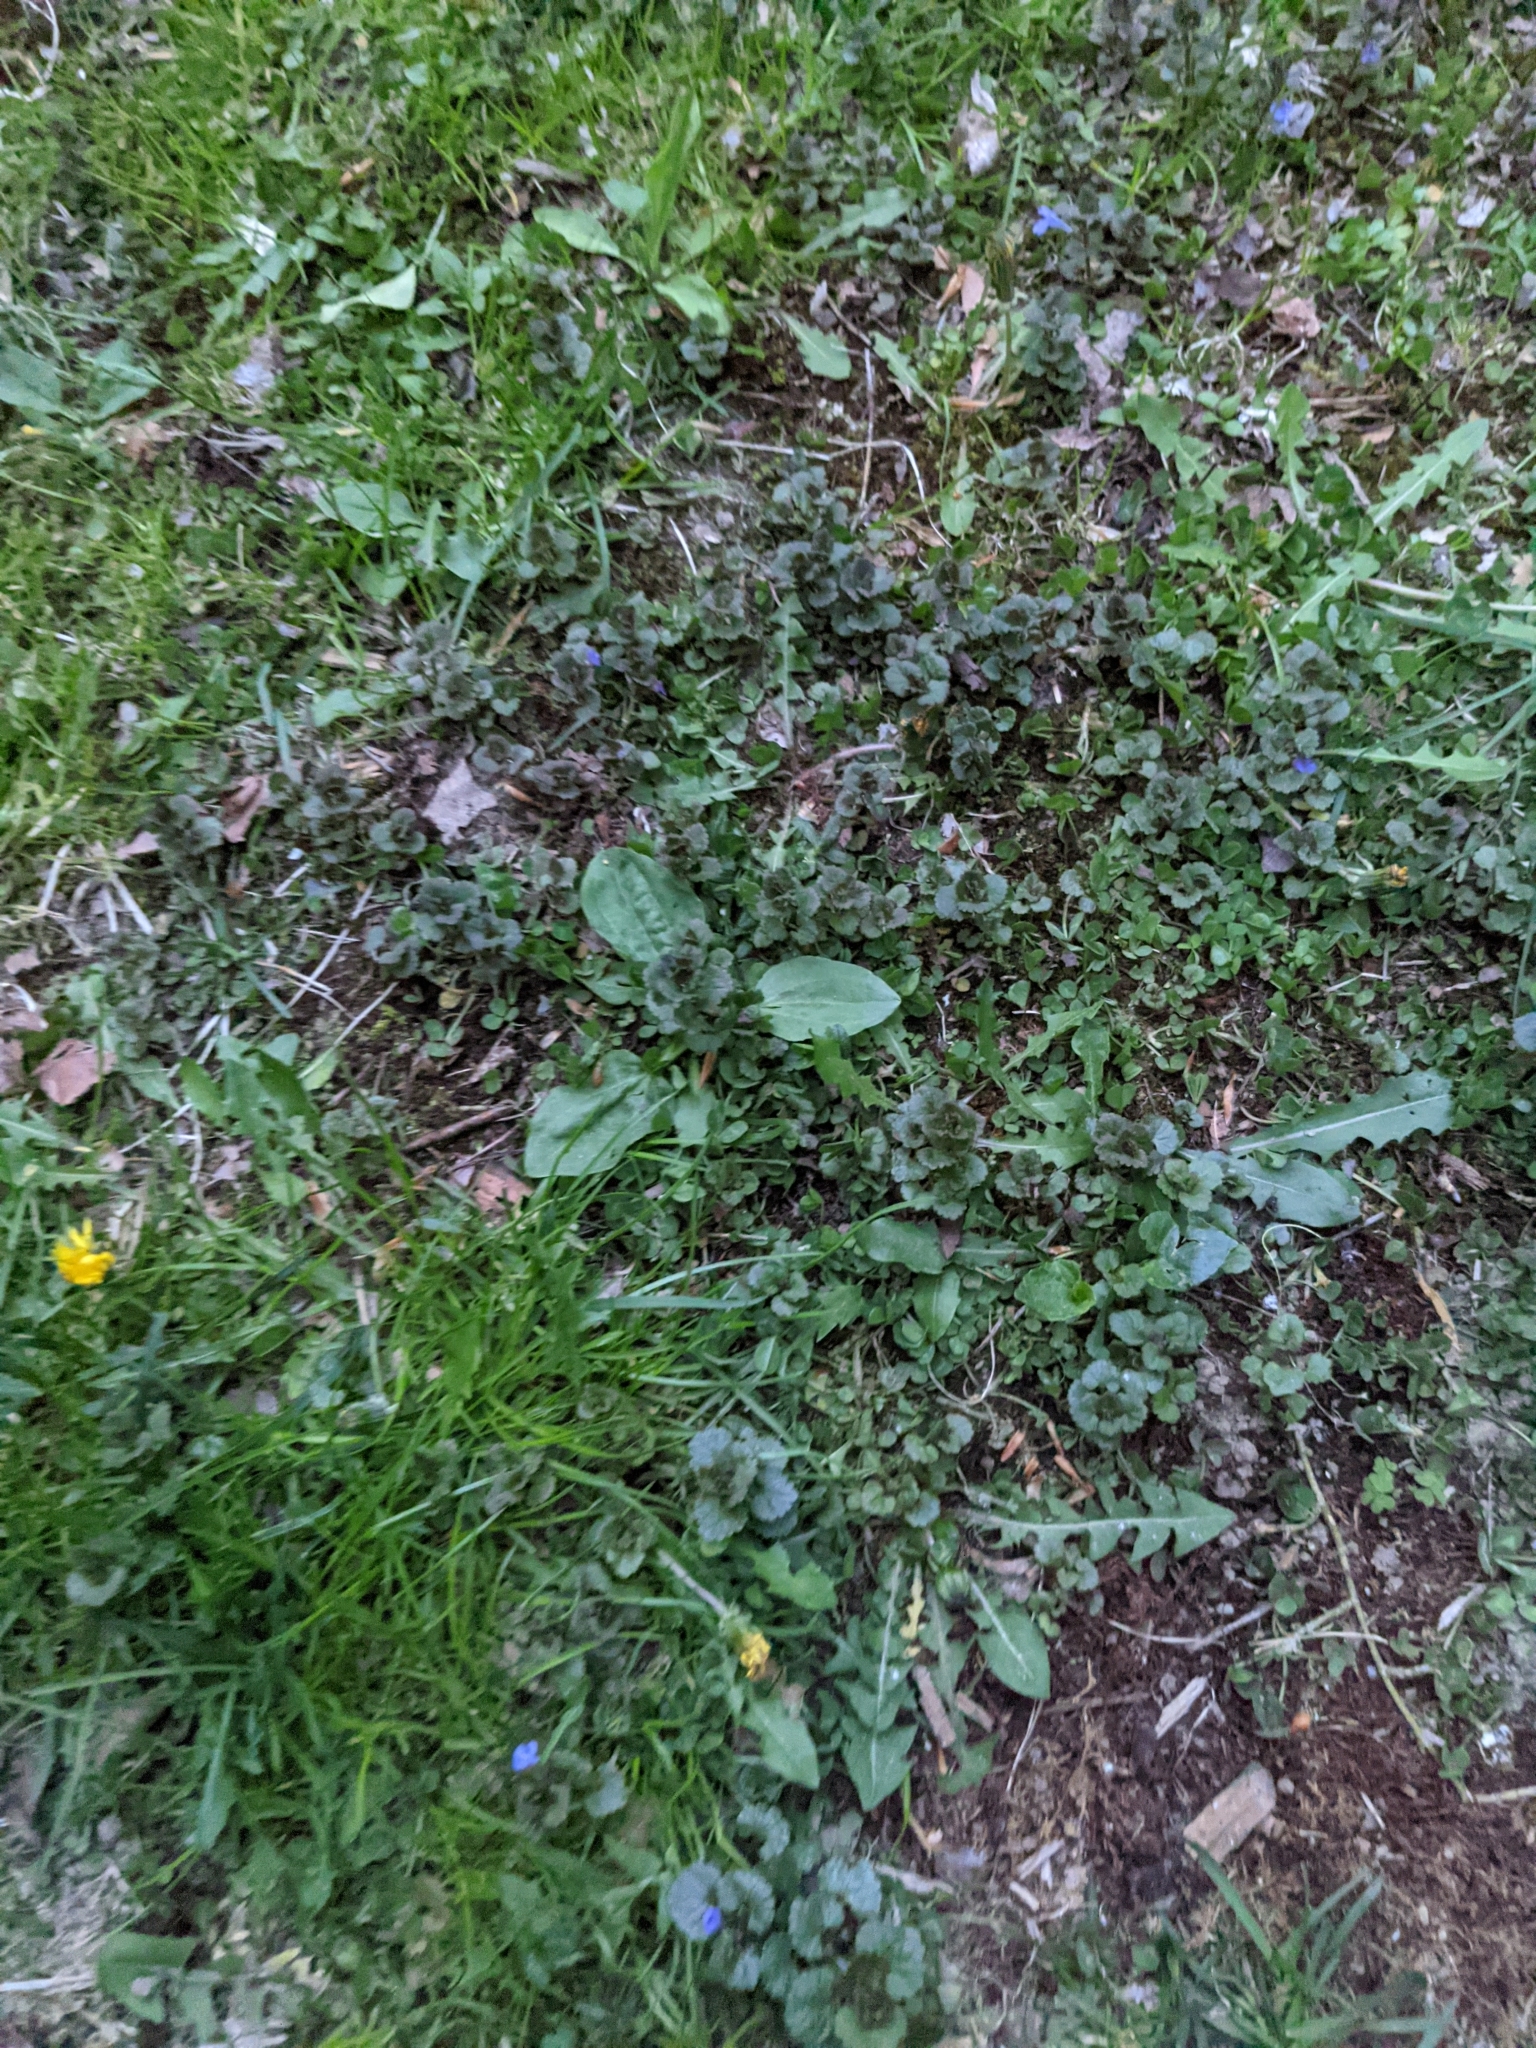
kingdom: Plantae
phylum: Tracheophyta
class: Magnoliopsida
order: Lamiales
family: Lamiaceae
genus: Glechoma
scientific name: Glechoma hederacea
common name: Ground ivy
